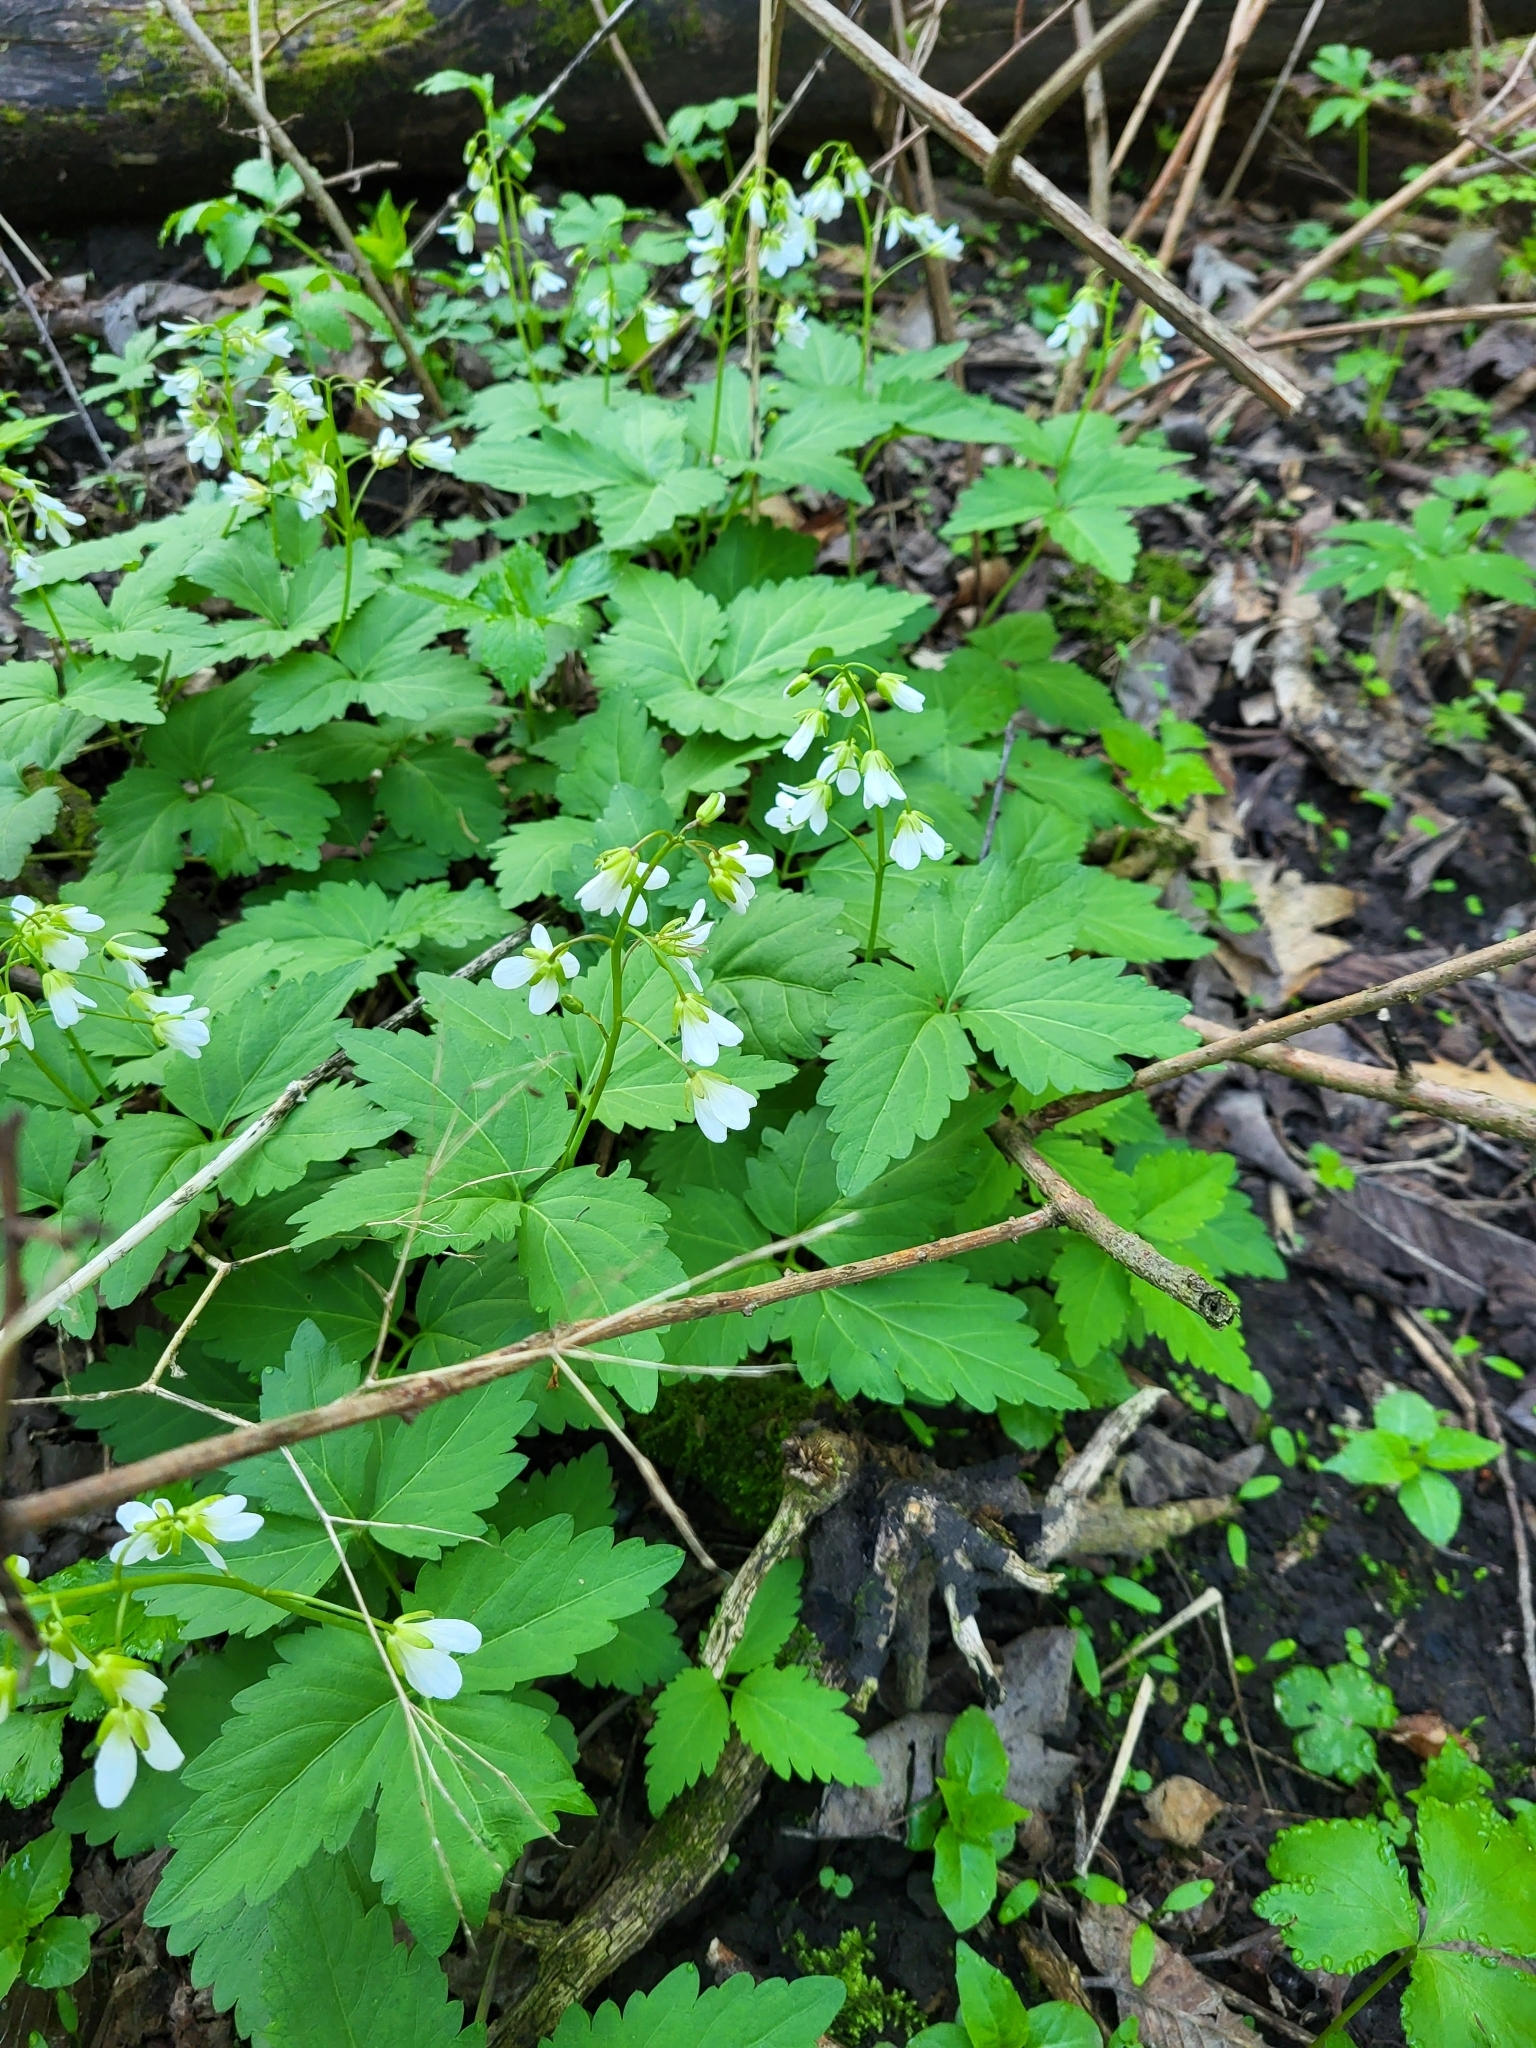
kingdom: Plantae
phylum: Tracheophyta
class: Magnoliopsida
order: Brassicales
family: Brassicaceae
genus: Cardamine
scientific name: Cardamine diphylla
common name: Broad-leaved toothwort
